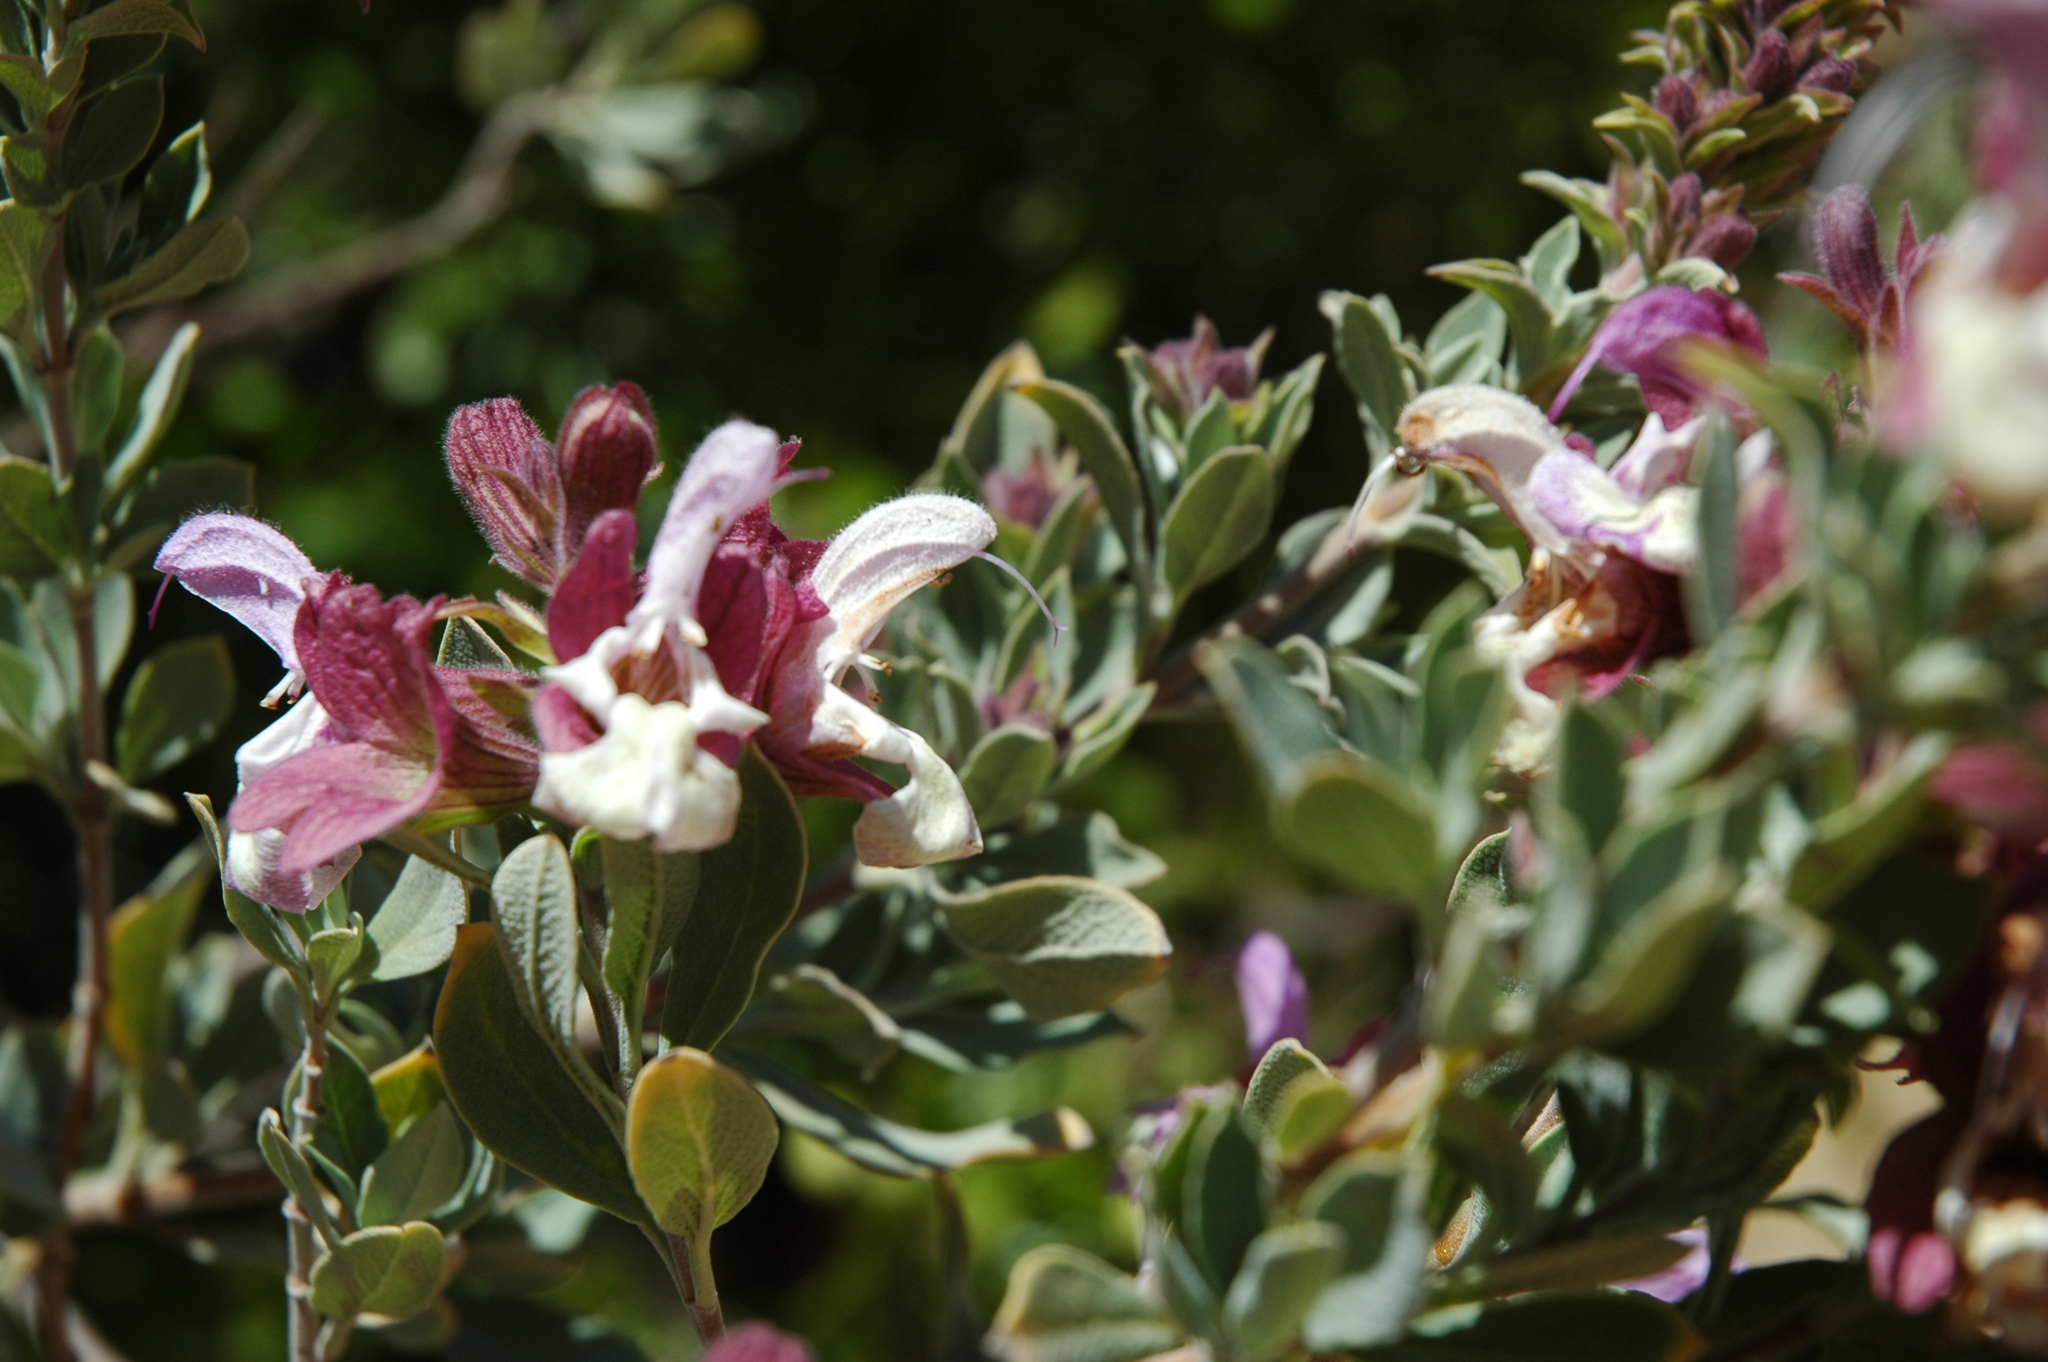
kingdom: Plantae
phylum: Tracheophyta
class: Magnoliopsida
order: Lamiales
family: Lamiaceae
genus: Salvia
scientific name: Salvia dolomitica
